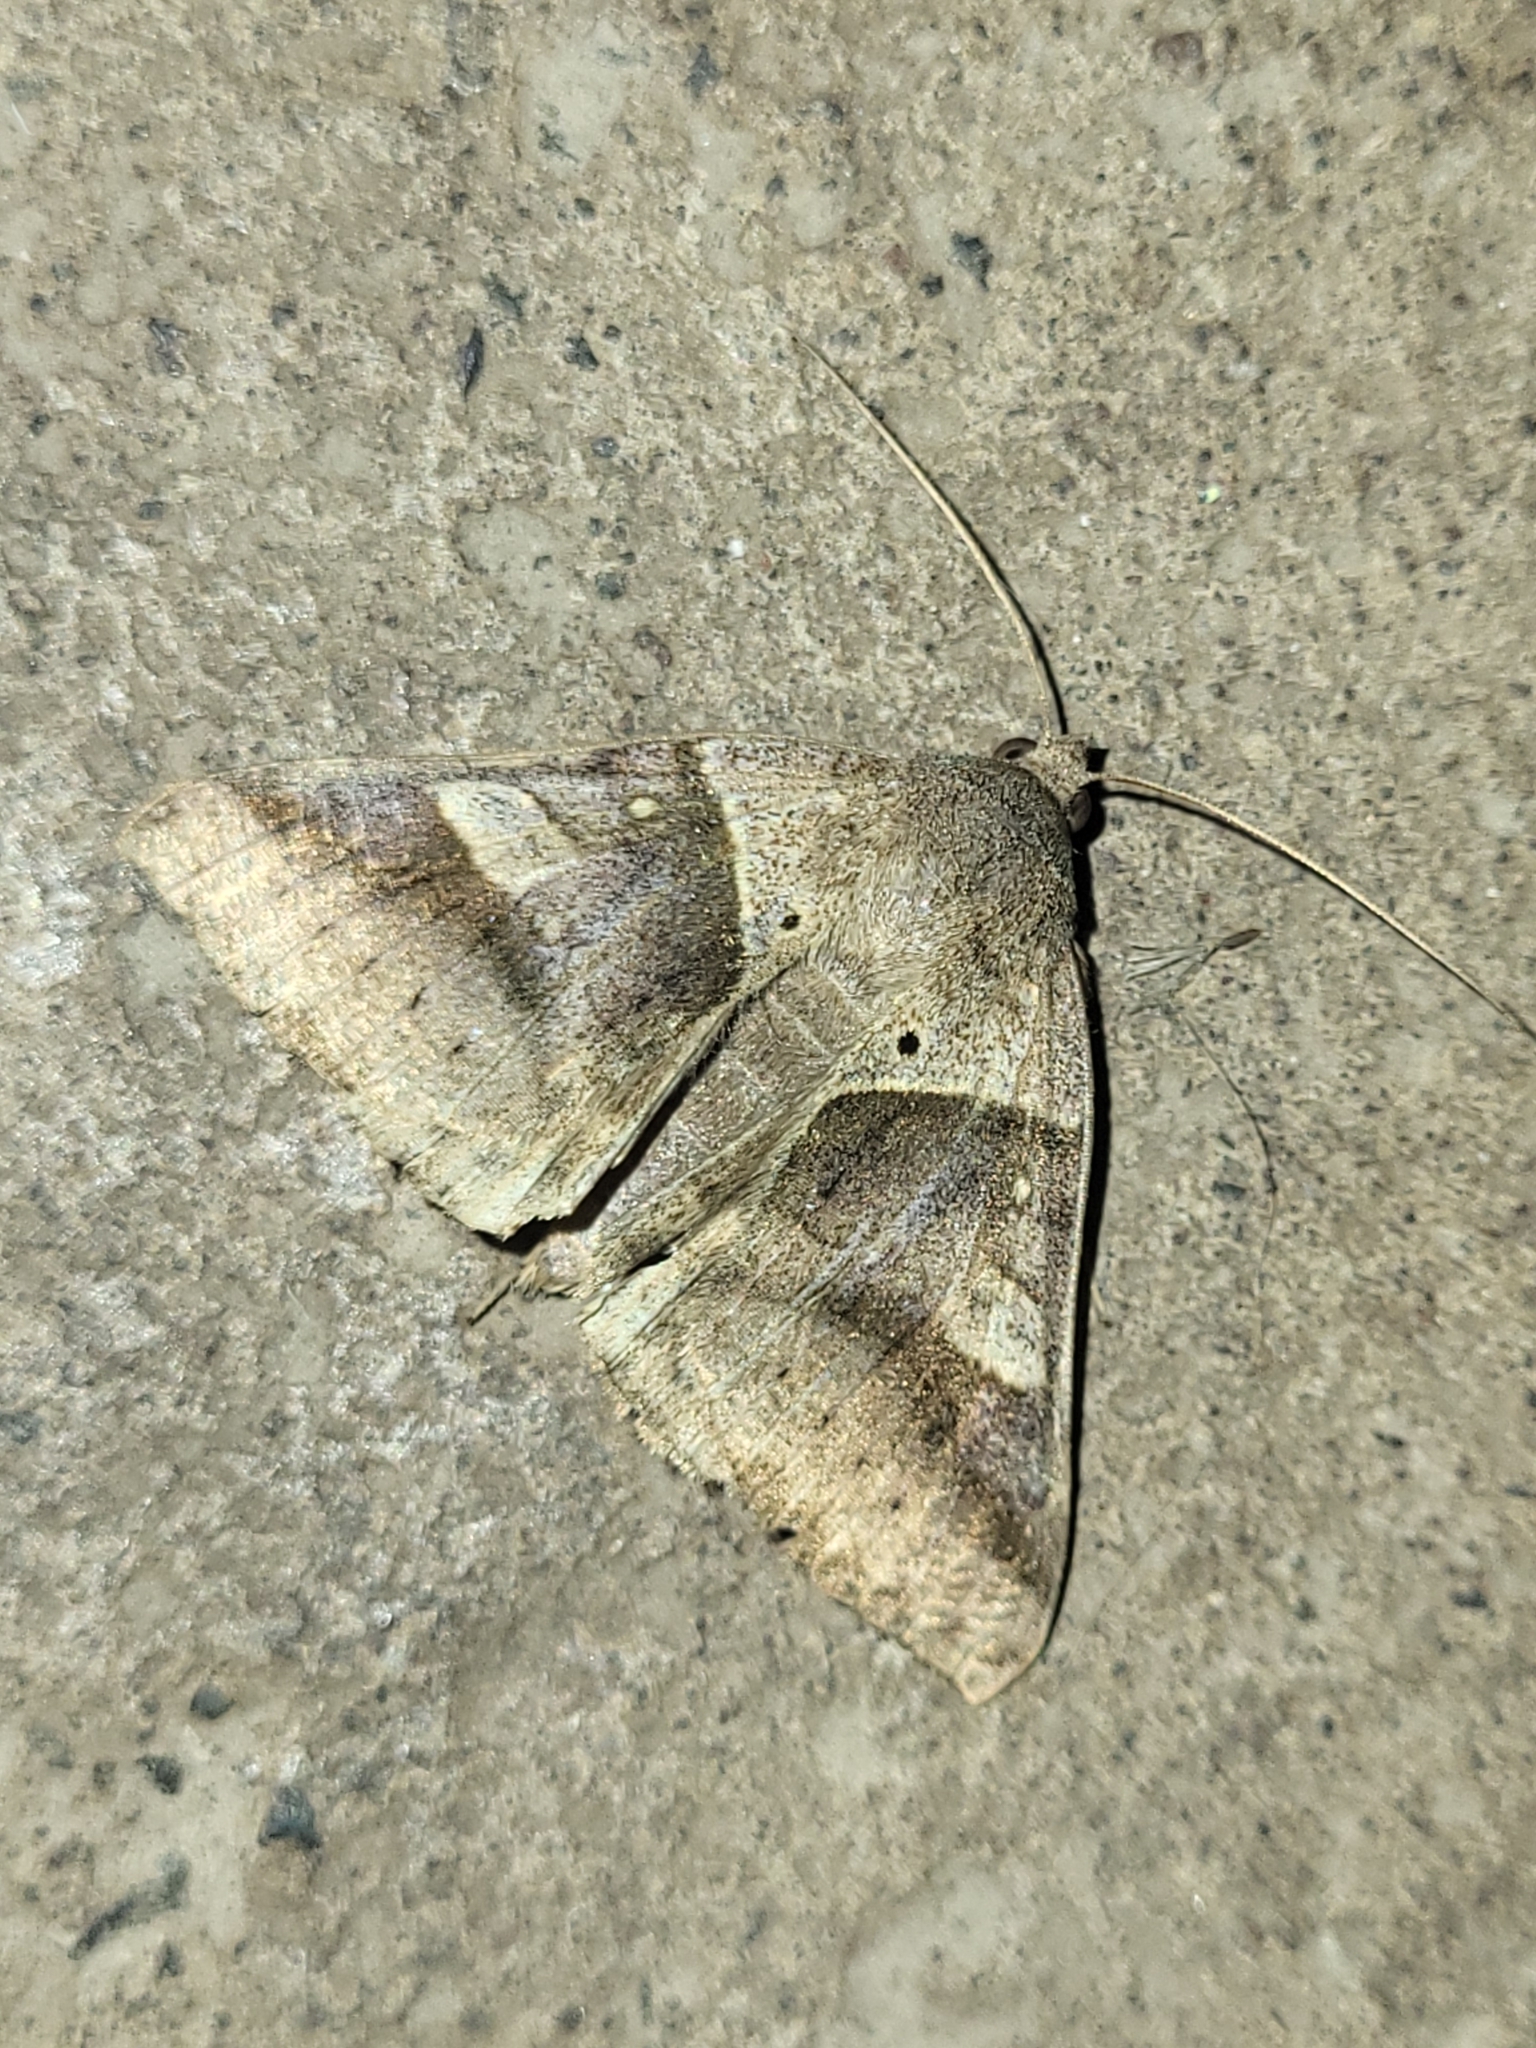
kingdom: Animalia
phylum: Arthropoda
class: Insecta
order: Lepidoptera
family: Erebidae
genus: Mocis
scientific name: Mocis mayeri
